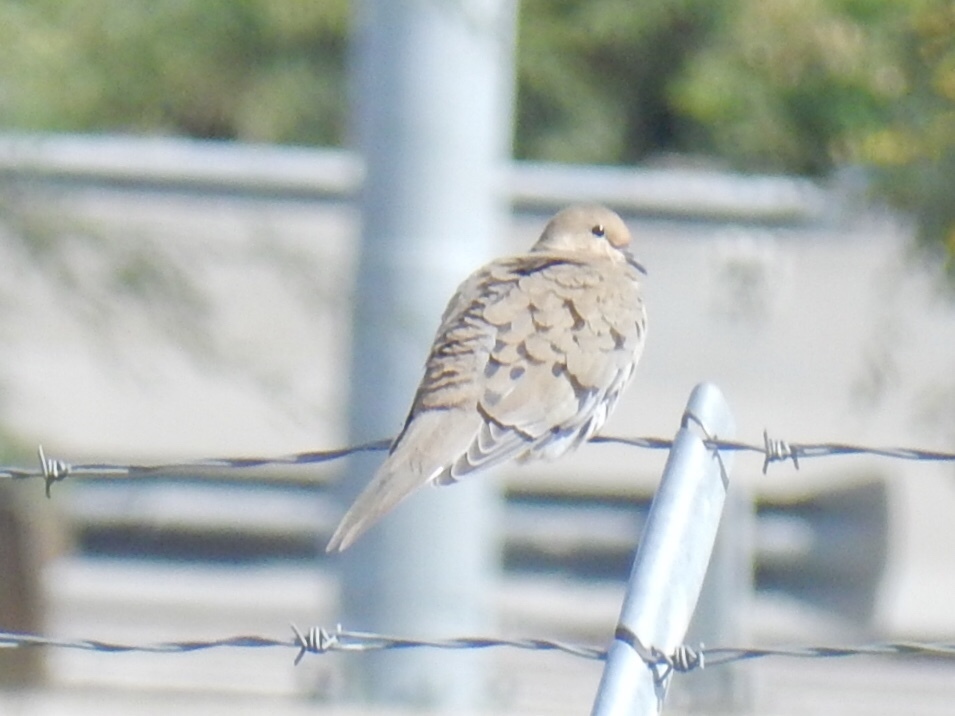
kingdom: Animalia
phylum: Chordata
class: Aves
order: Columbiformes
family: Columbidae
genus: Zenaida
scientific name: Zenaida macroura
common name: Mourning dove
